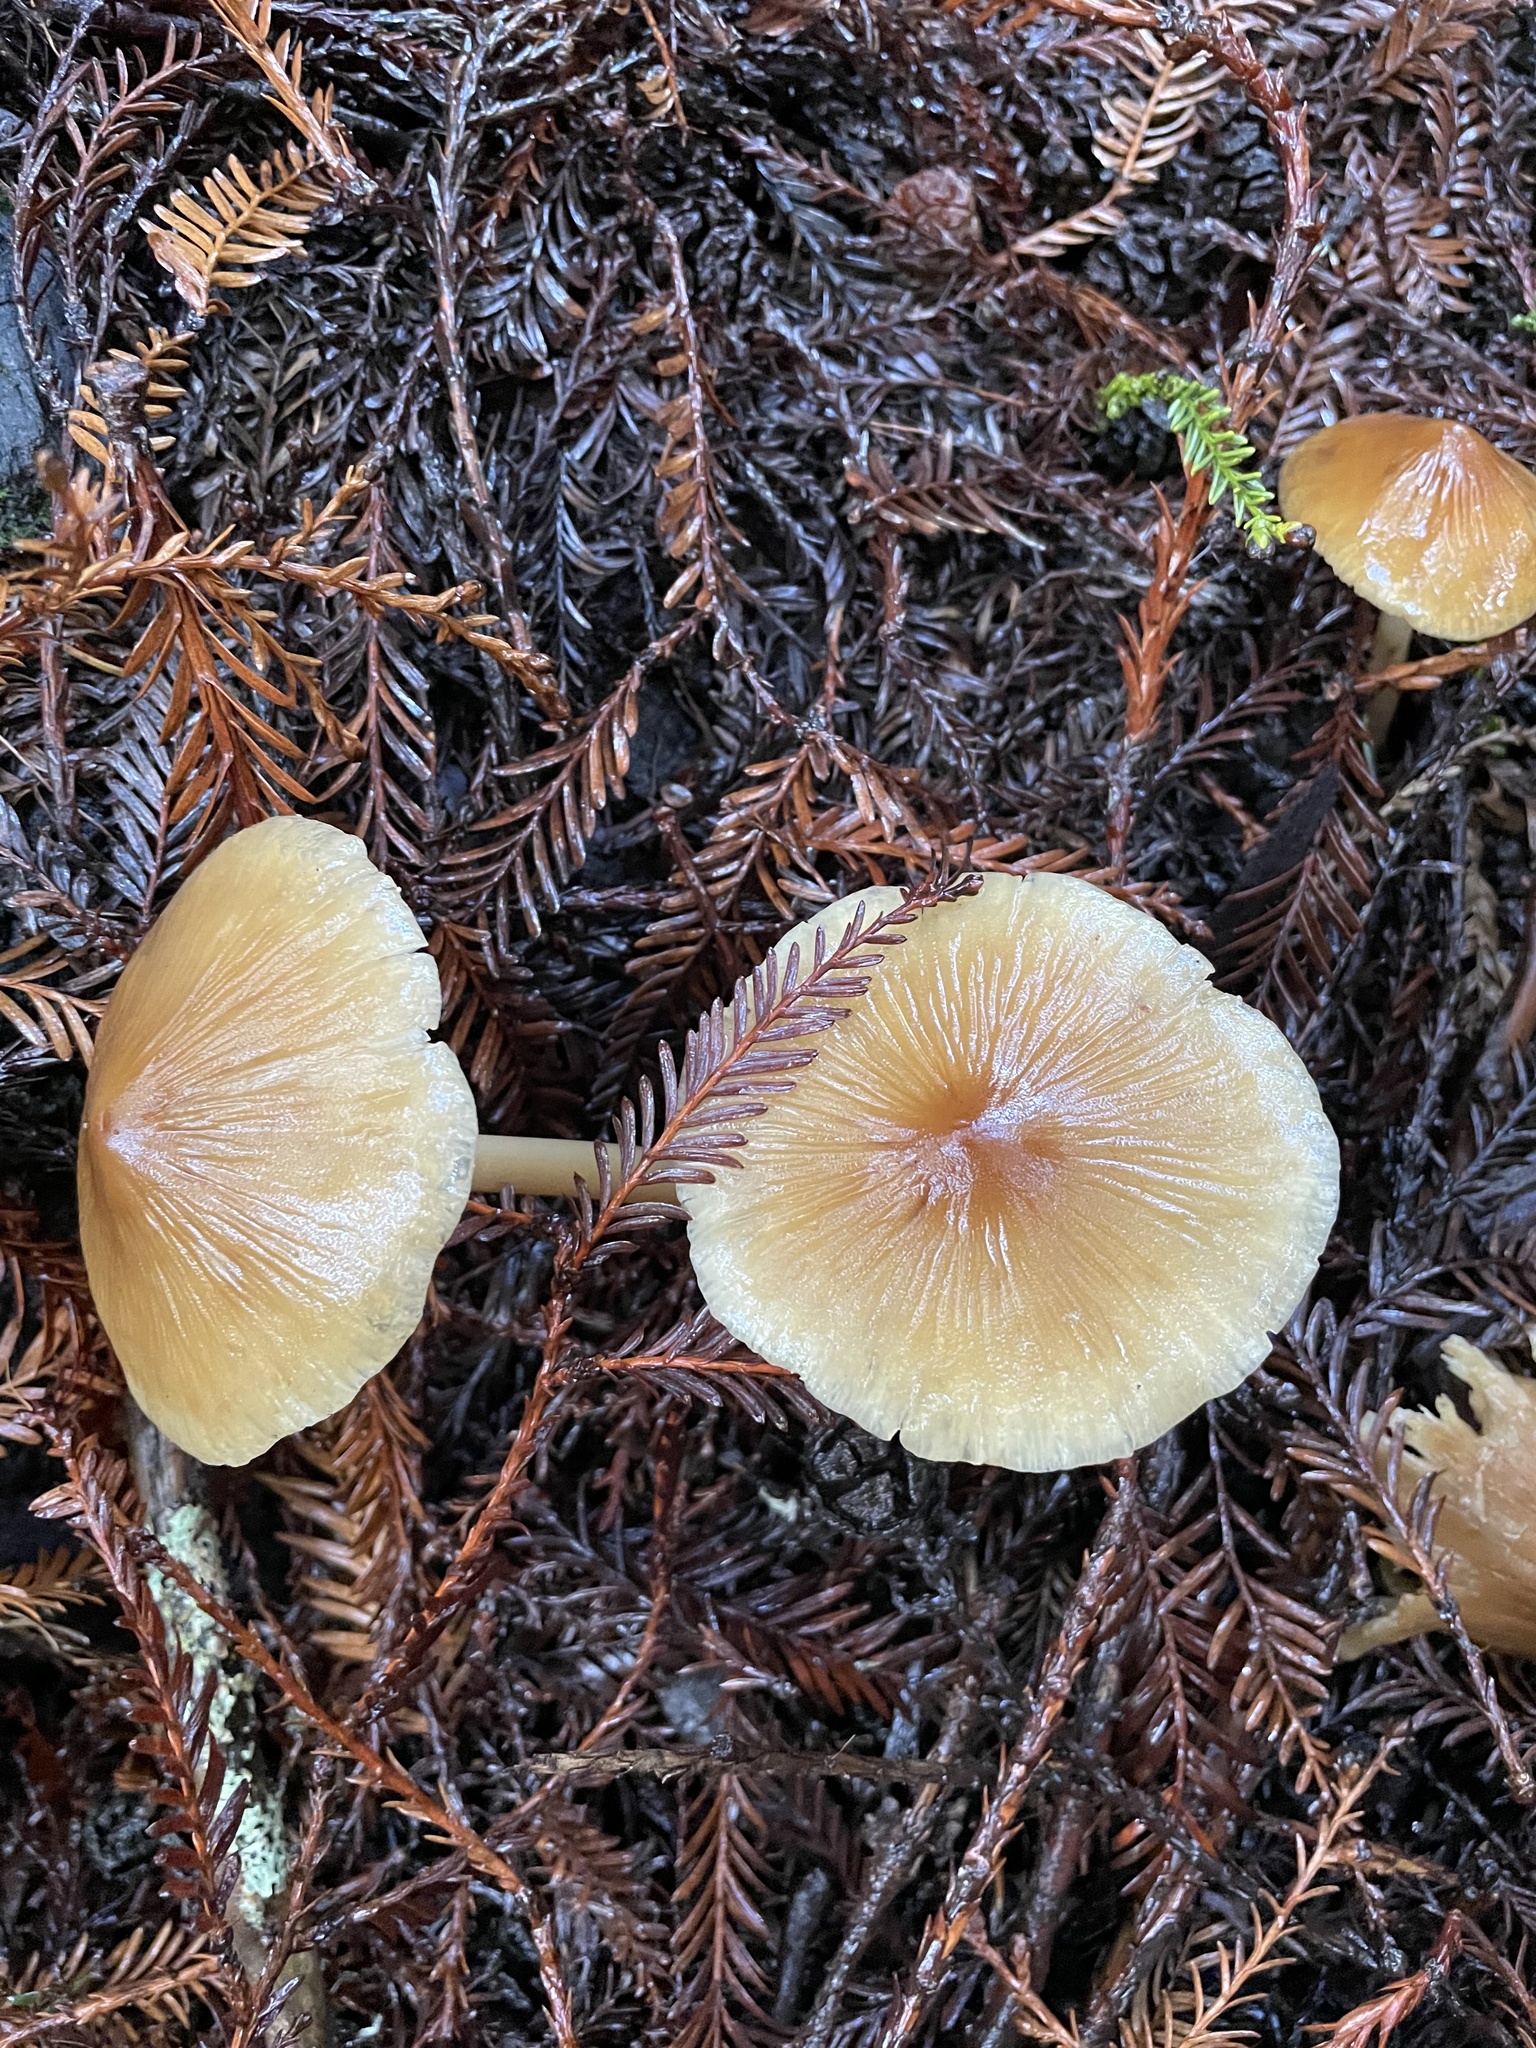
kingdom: Fungi
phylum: Basidiomycota
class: Agaricomycetes
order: Agaricales
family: Tricholomataceae
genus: Caulorhiza
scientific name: Caulorhiza umbonata
